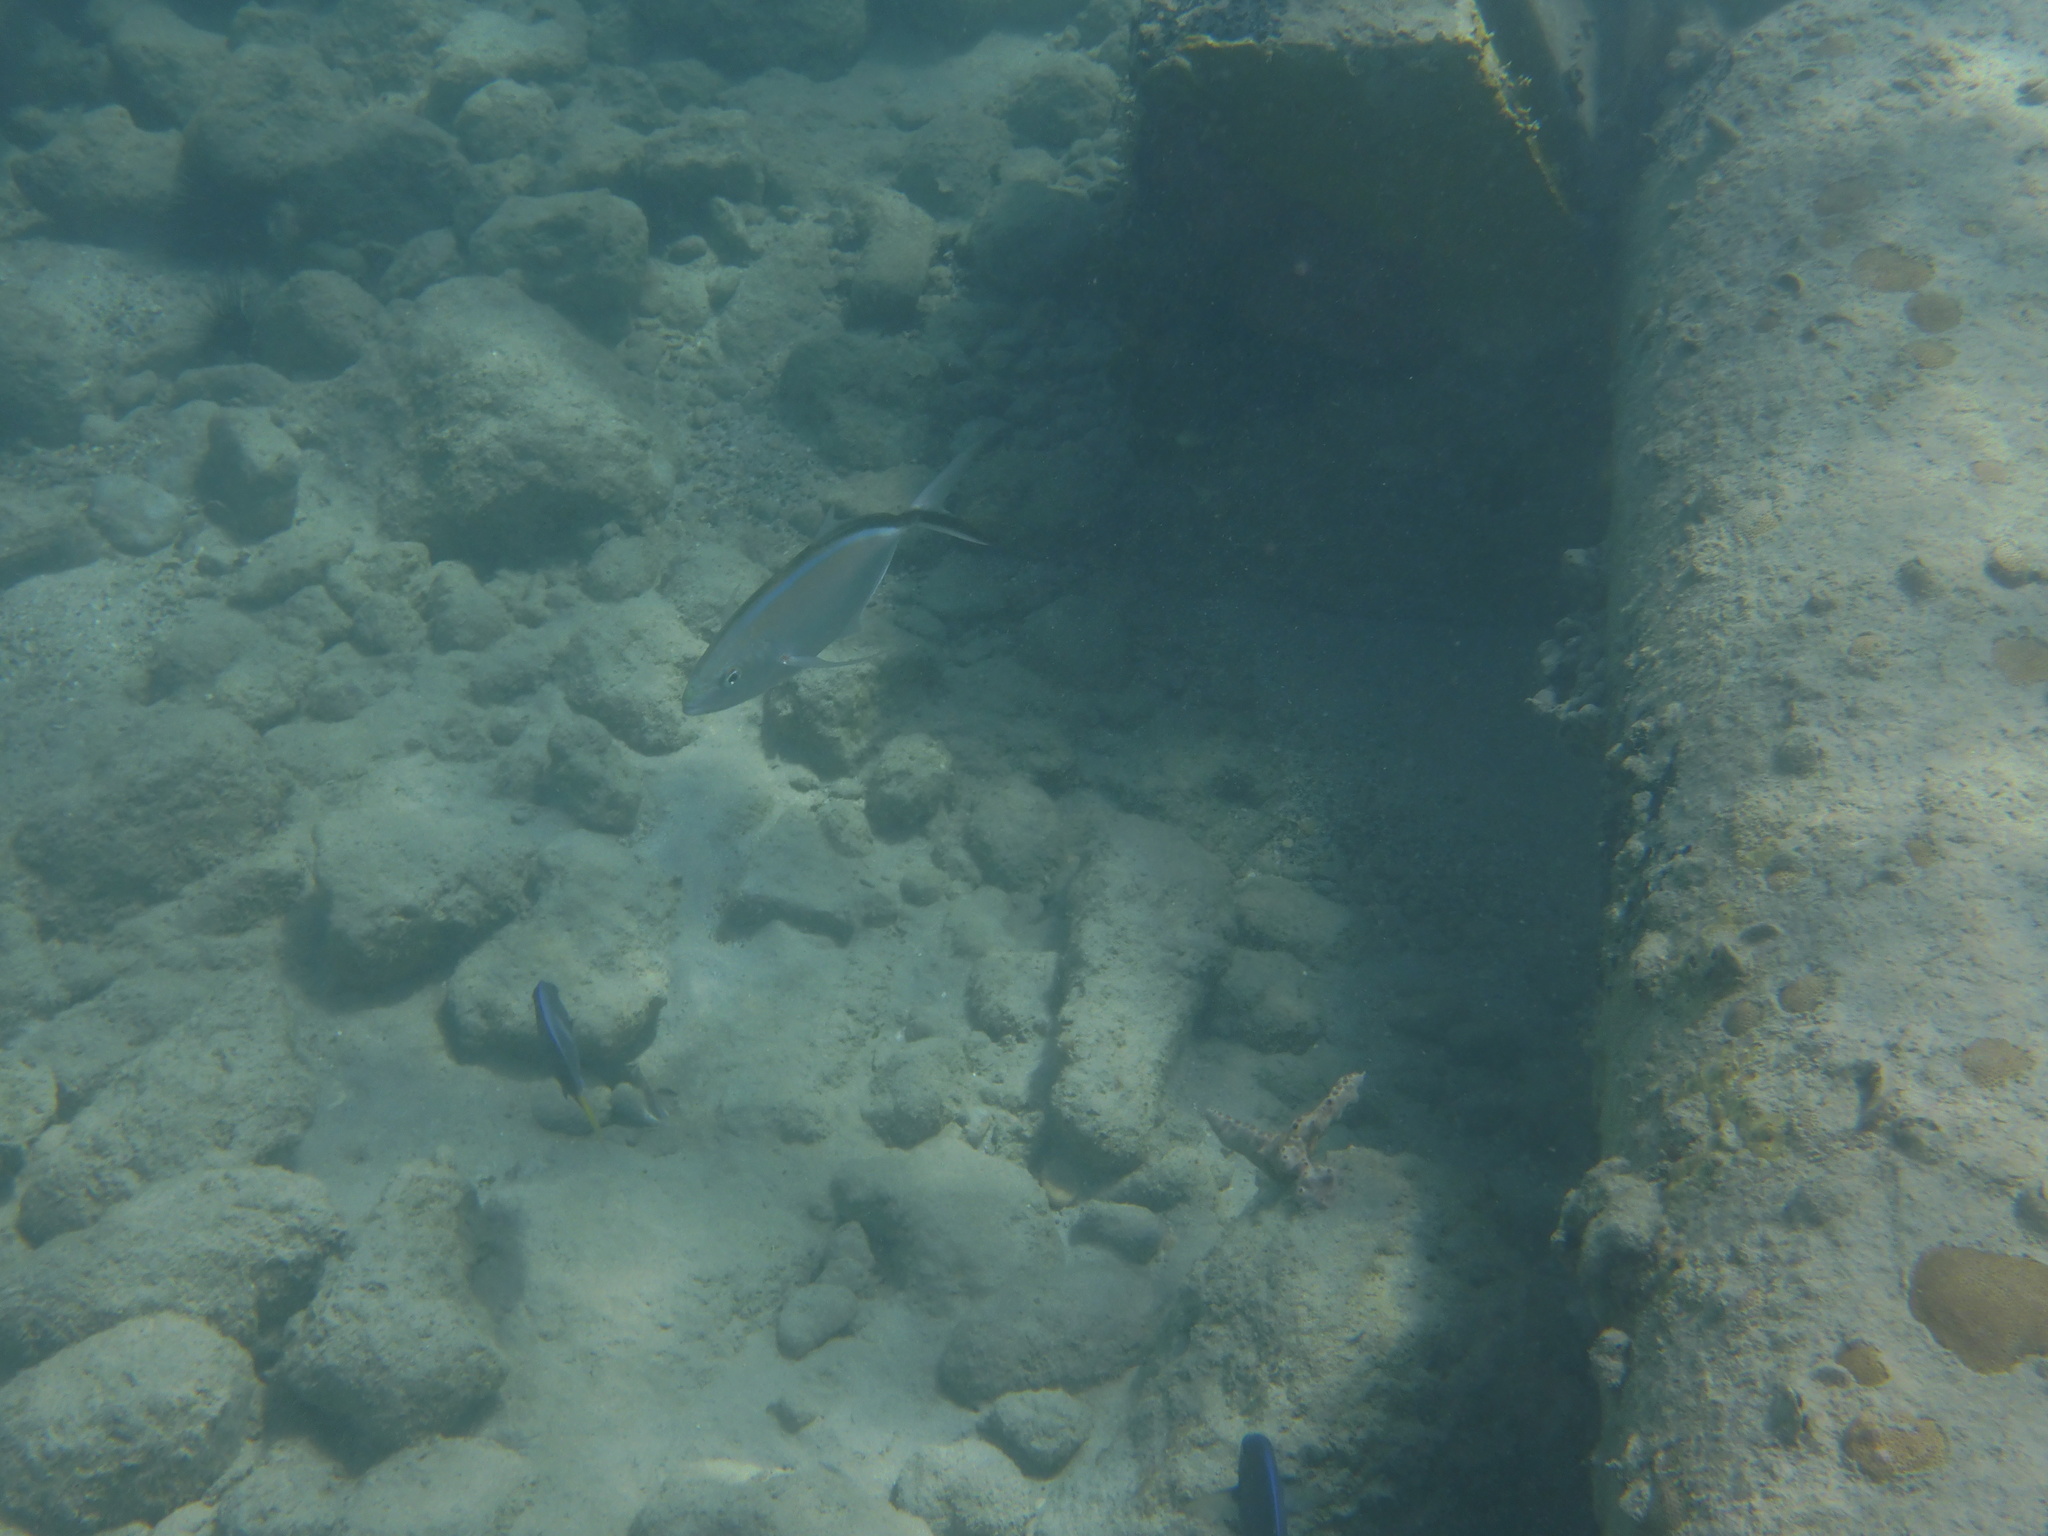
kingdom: Animalia
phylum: Chordata
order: Perciformes
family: Carangidae
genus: Caranx
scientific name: Caranx ruber
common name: Bar jack
